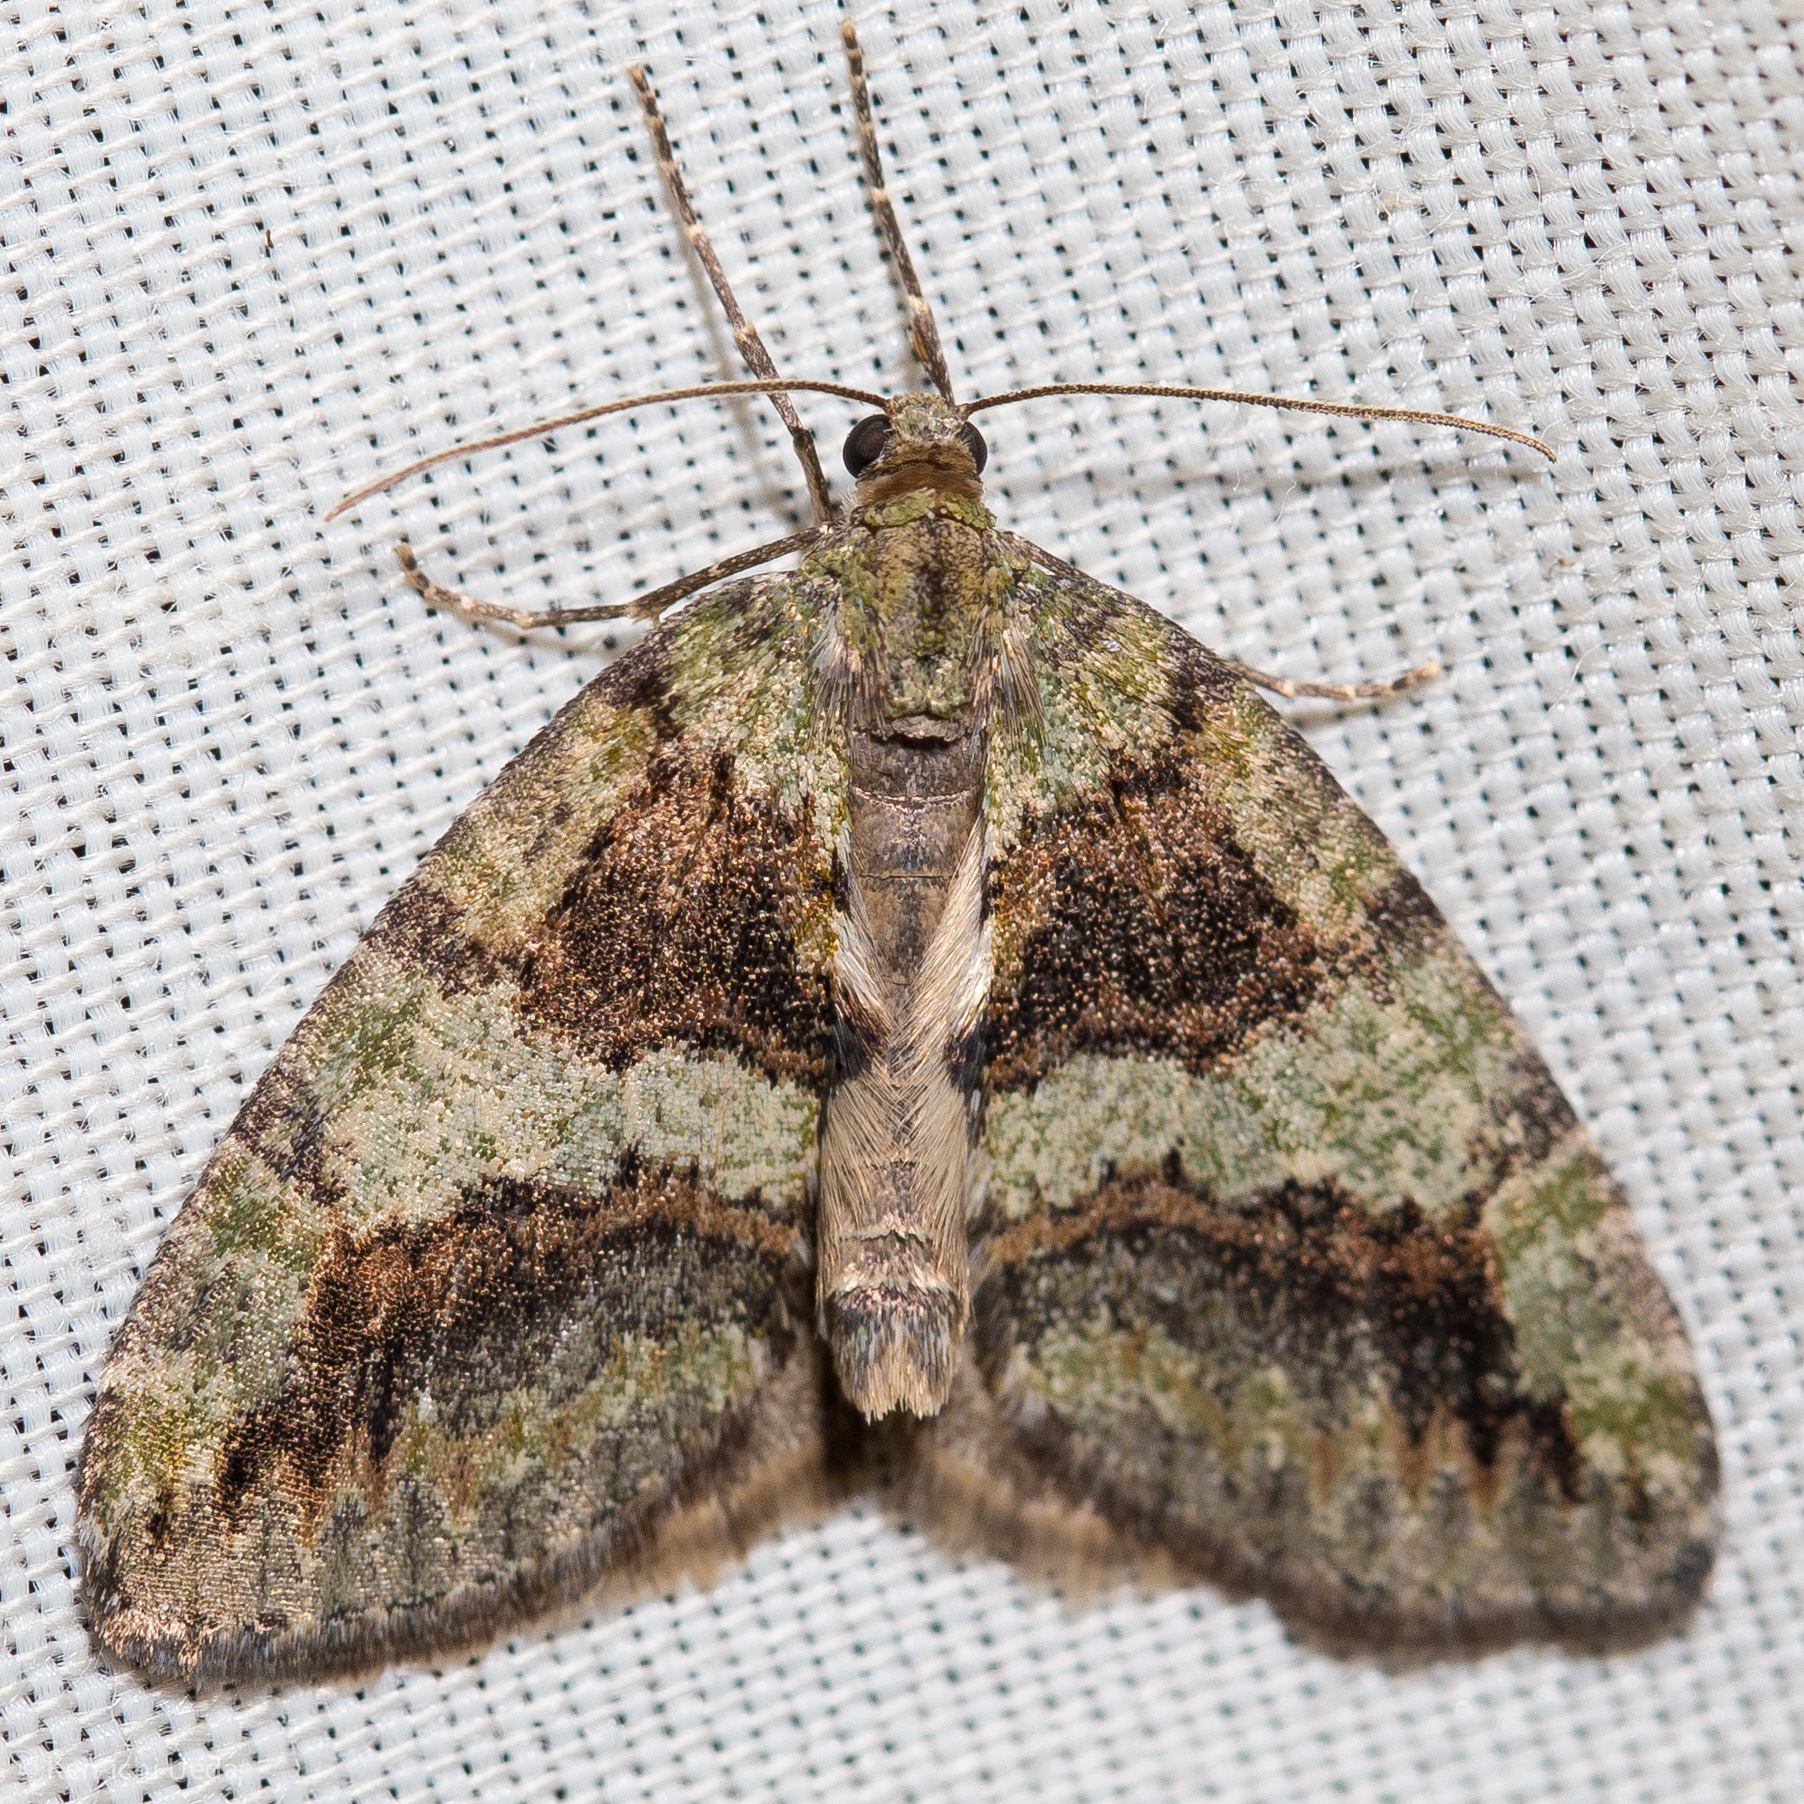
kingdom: Animalia
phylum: Arthropoda
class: Insecta
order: Lepidoptera
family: Geometridae
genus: Hydriomena
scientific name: Hydriomena nubilofasciata
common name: Oak winter highflier moth
